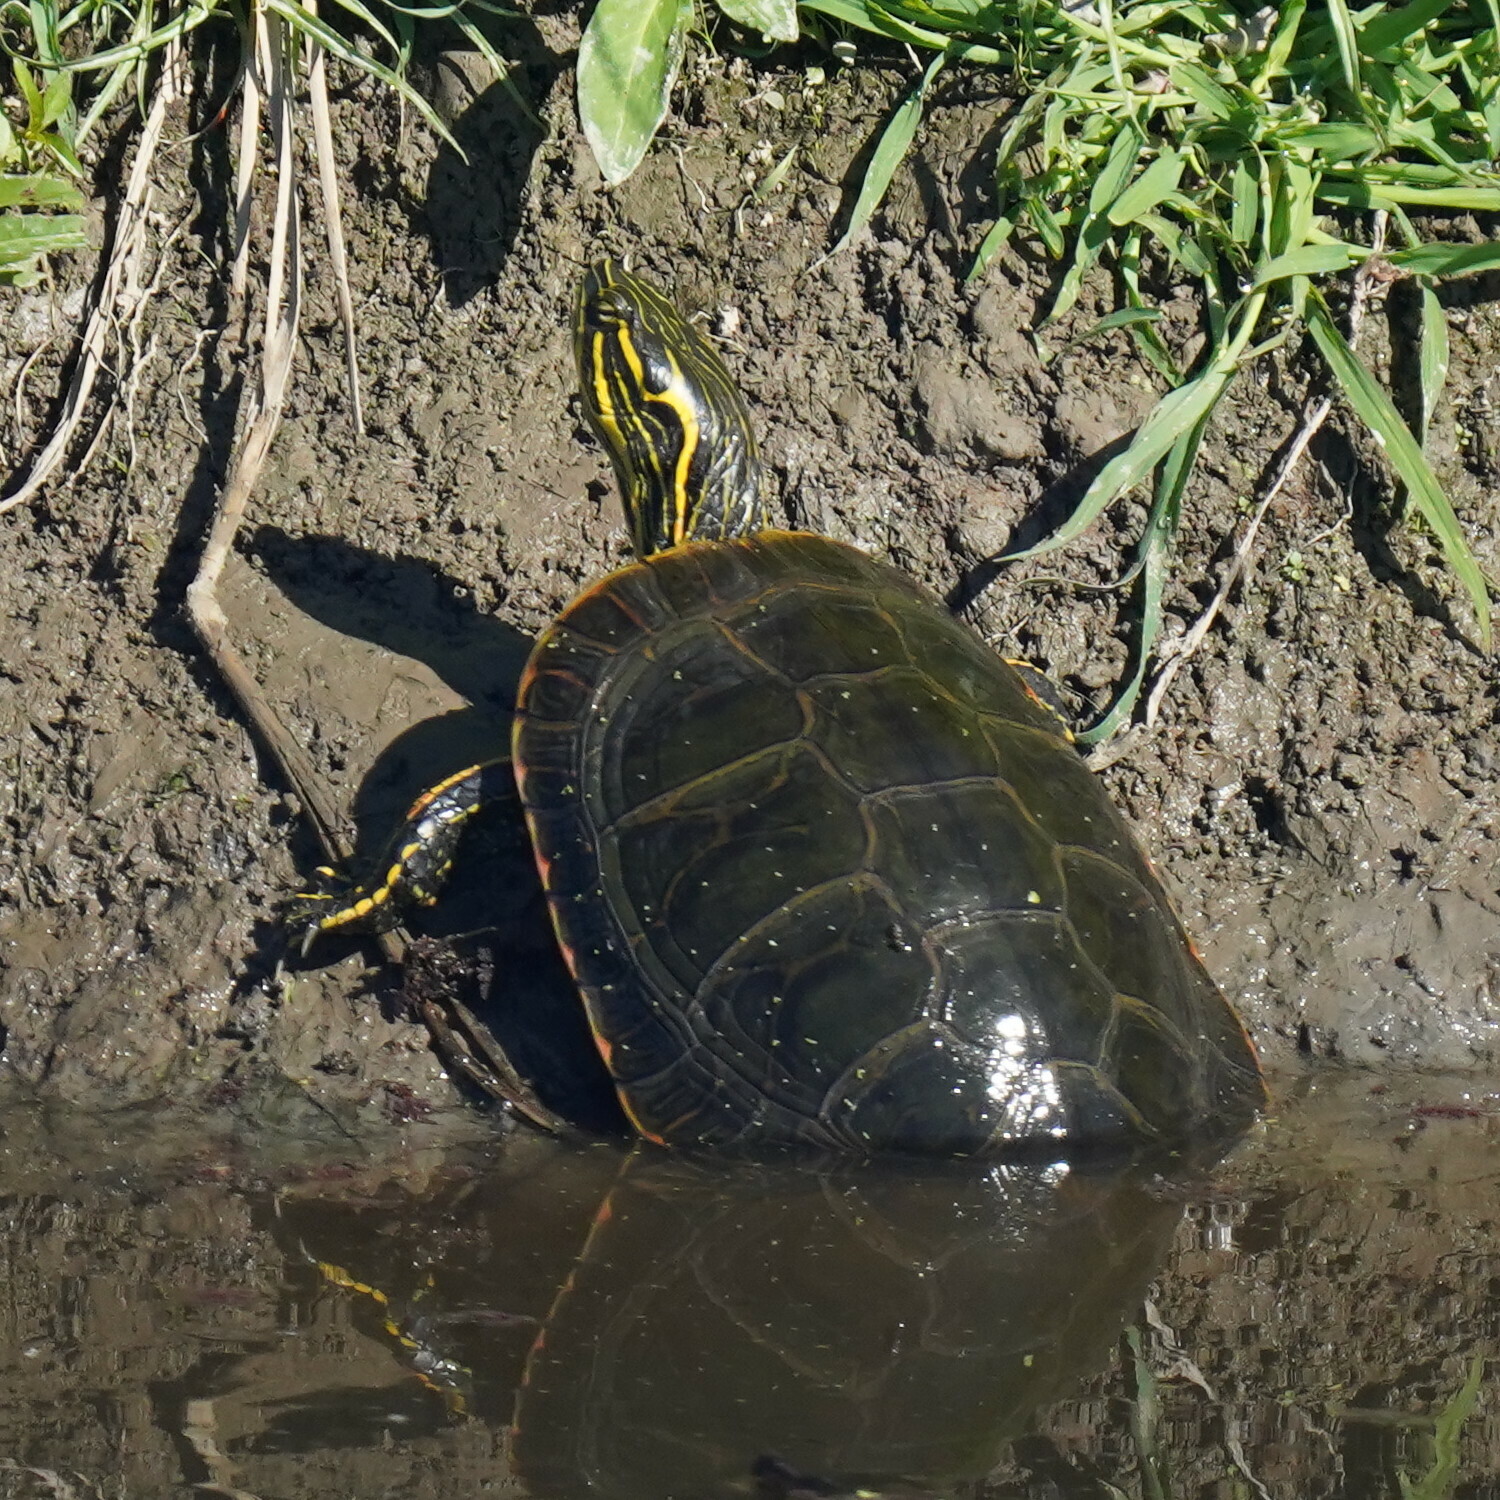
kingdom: Animalia
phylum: Chordata
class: Testudines
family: Emydidae
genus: Chrysemys
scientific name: Chrysemys picta
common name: Painted turtle
